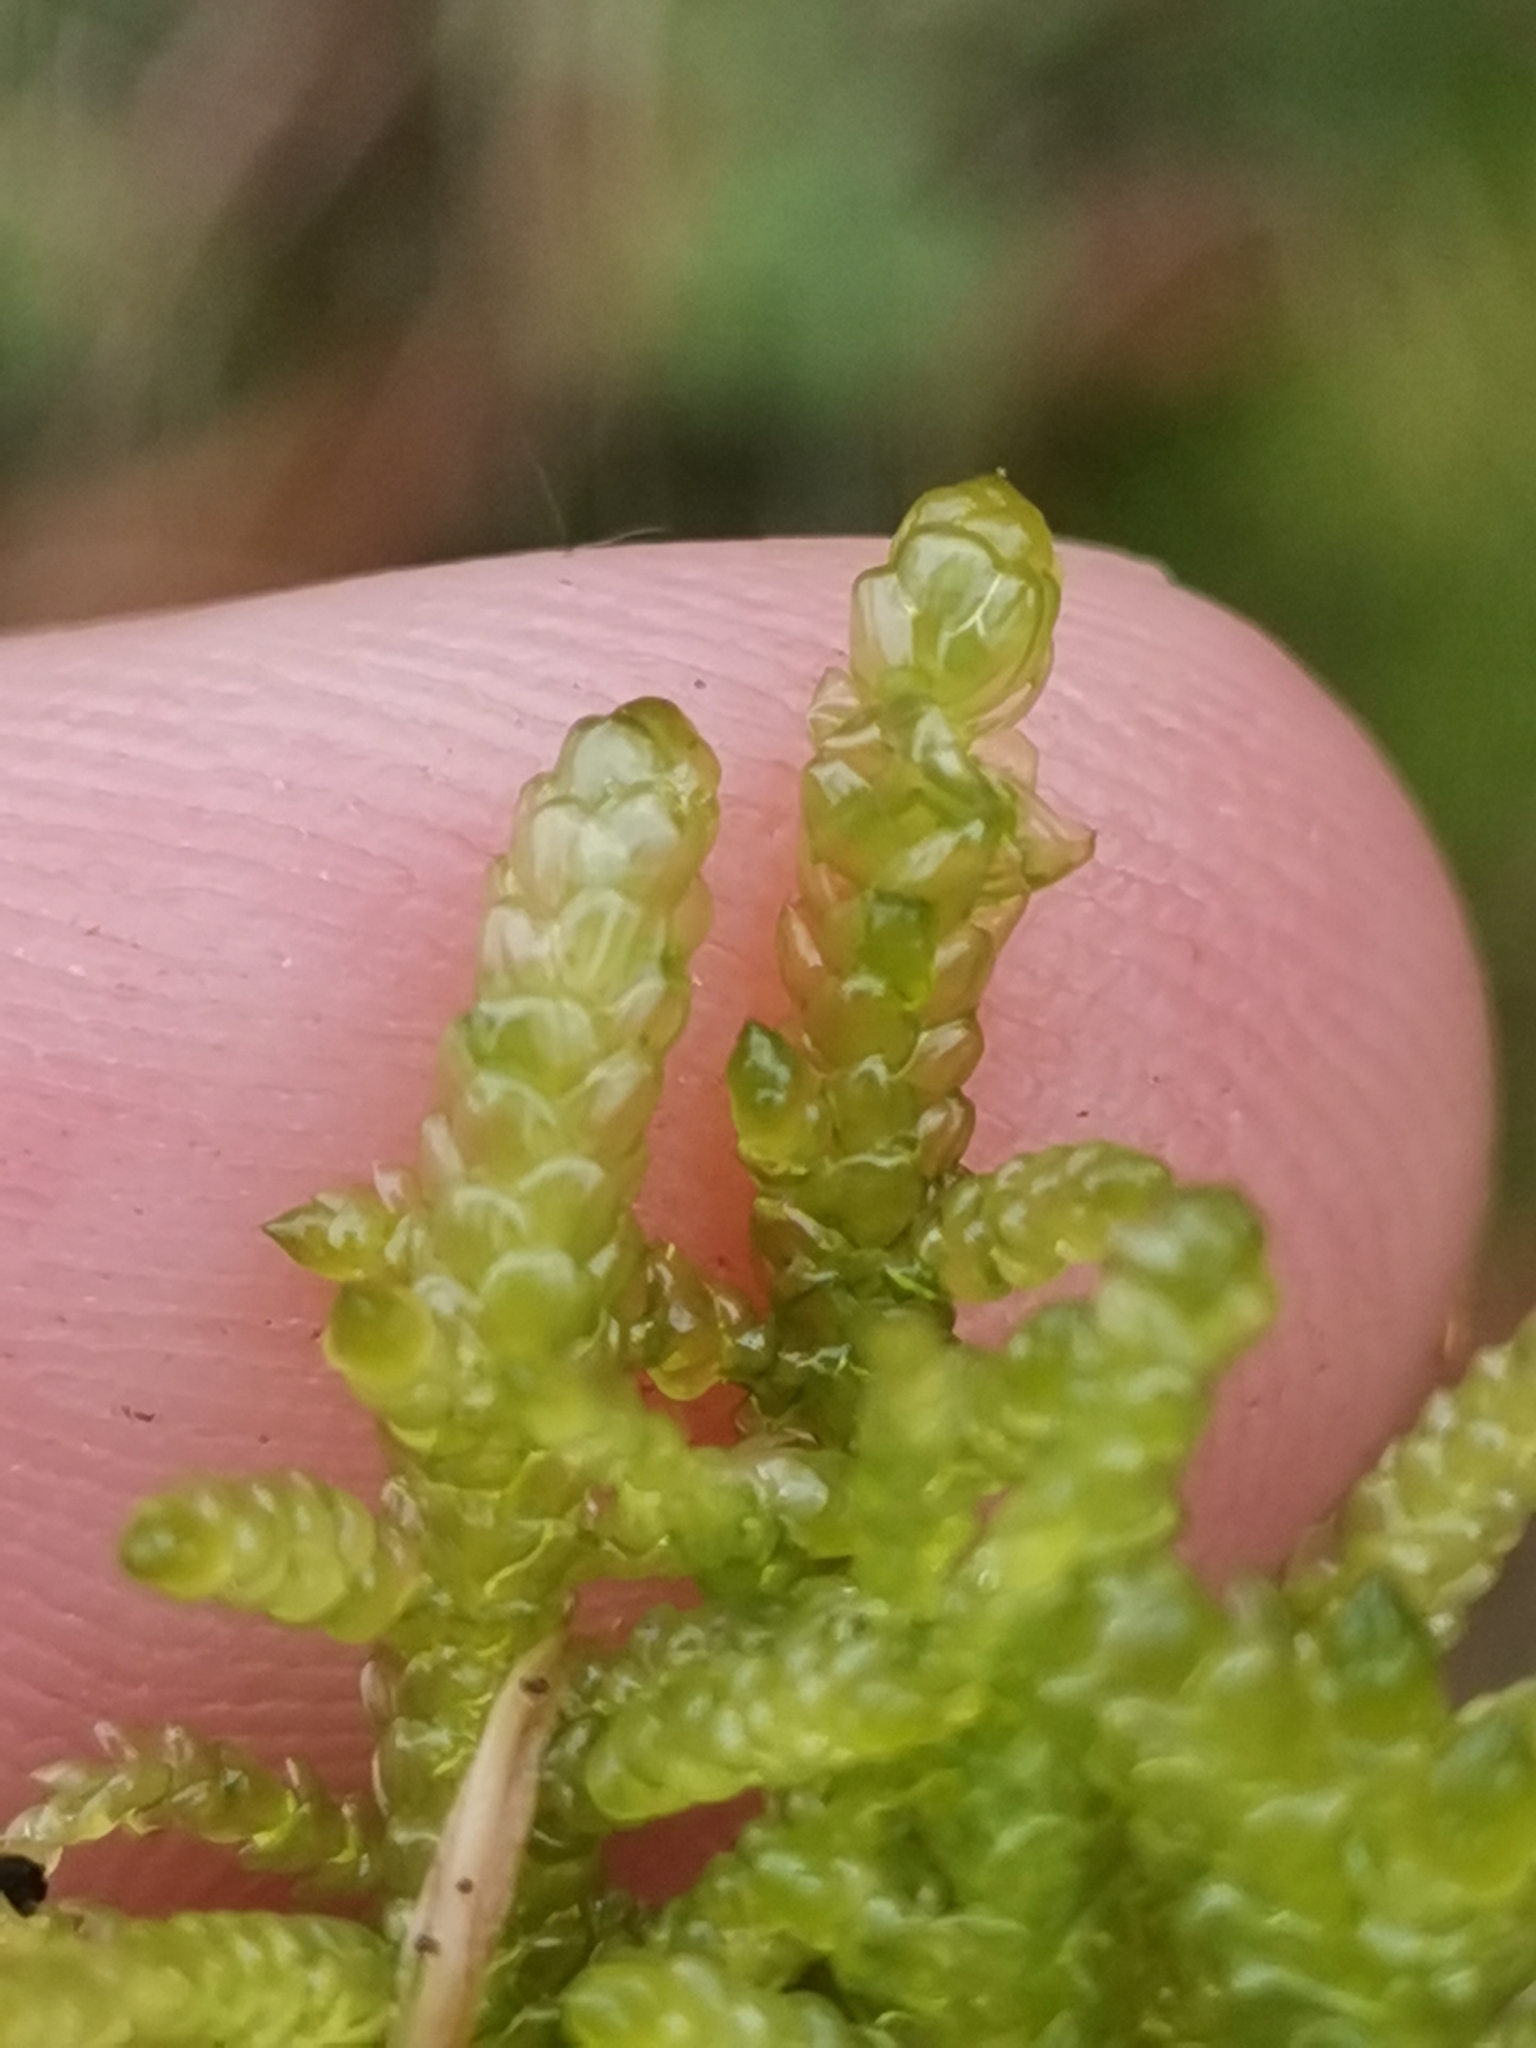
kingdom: Plantae
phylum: Bryophyta
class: Bryopsida
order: Hypnales
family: Brachytheciaceae
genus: Pseudoscleropodium
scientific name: Pseudoscleropodium purum
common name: Neat feather-moss
